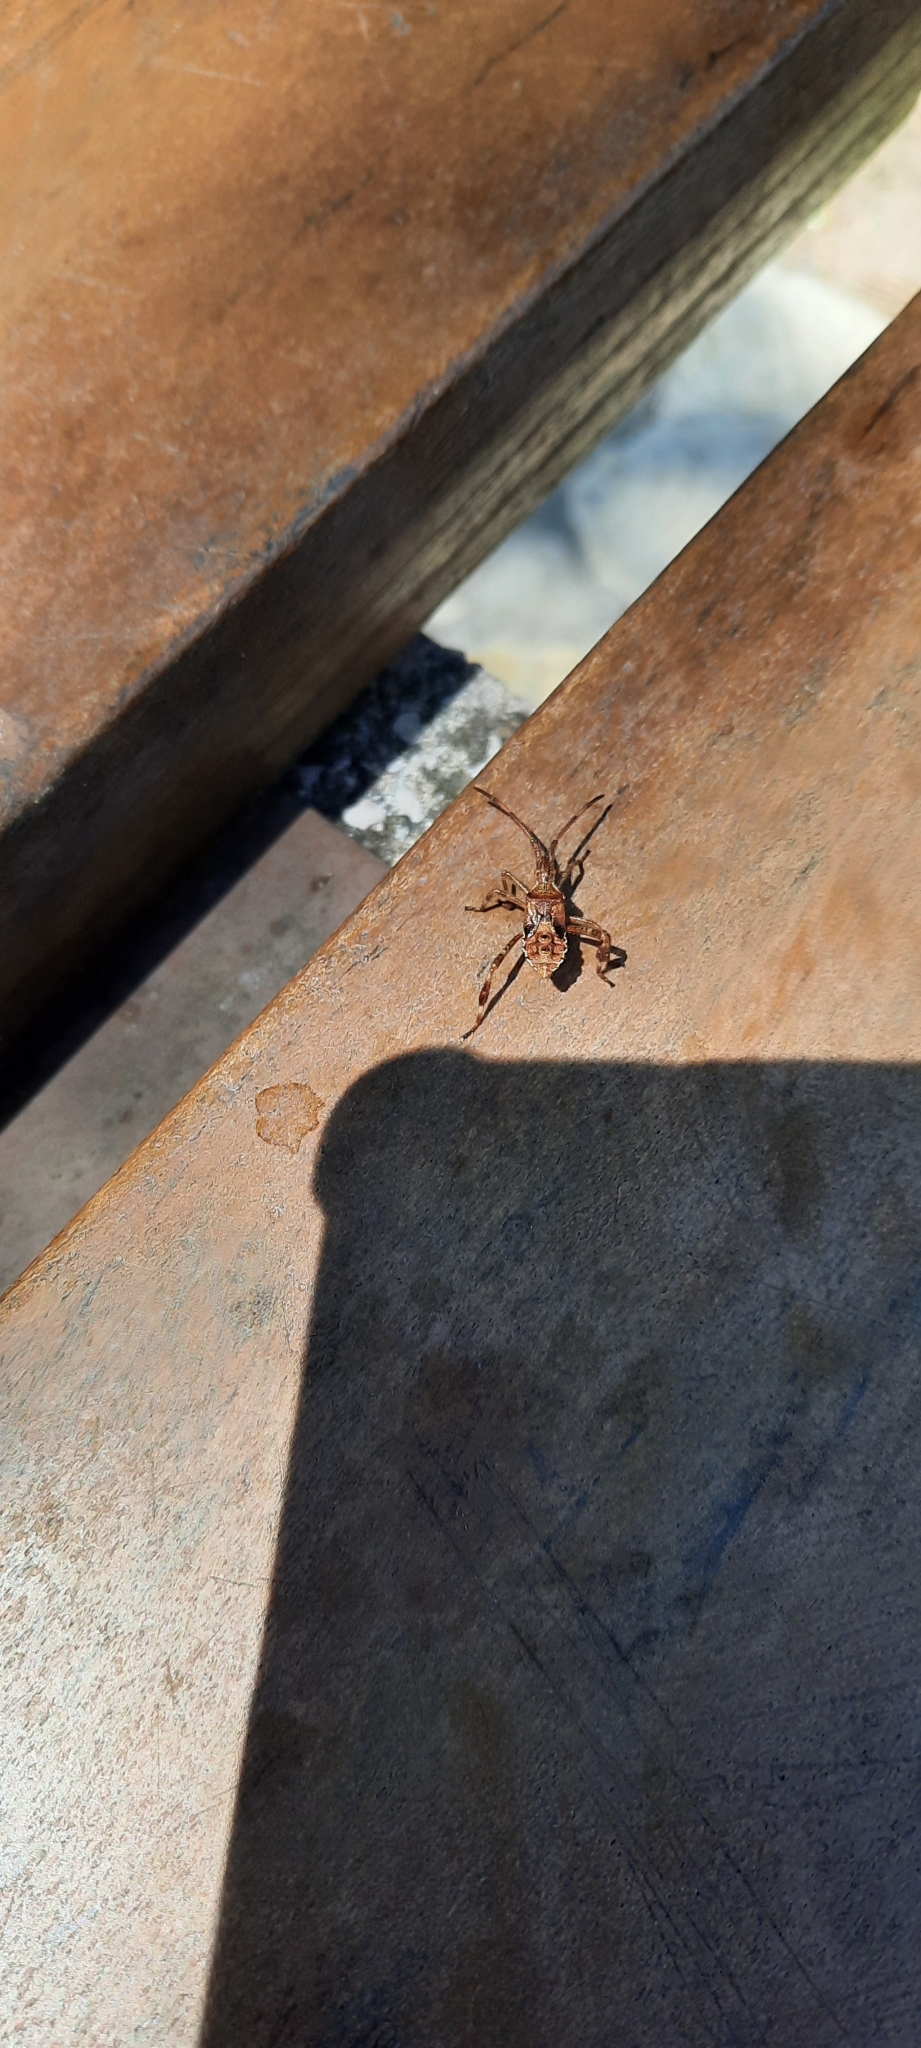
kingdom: Animalia
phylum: Arthropoda
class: Insecta
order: Hemiptera
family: Coreidae
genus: Leptoglossus
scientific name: Leptoglossus occidentalis
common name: Western conifer-seed bug
